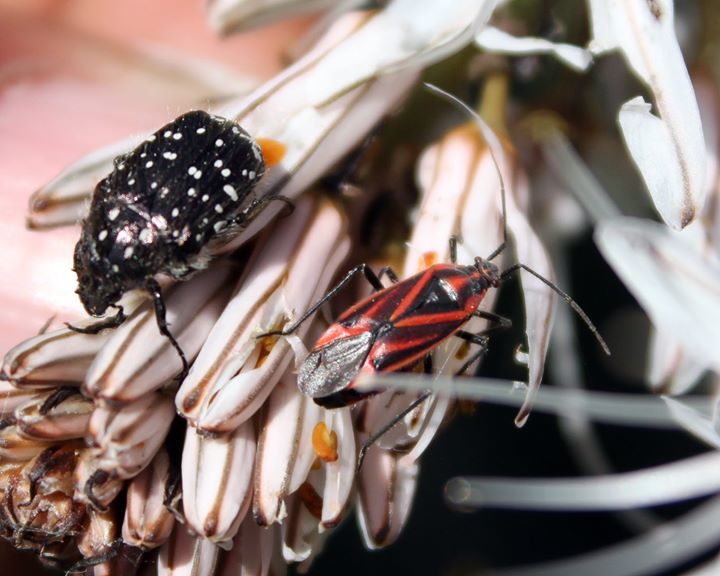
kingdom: Animalia
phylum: Arthropoda
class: Insecta
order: Hemiptera
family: Miridae
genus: Horistus
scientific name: Horistus infuscatus
